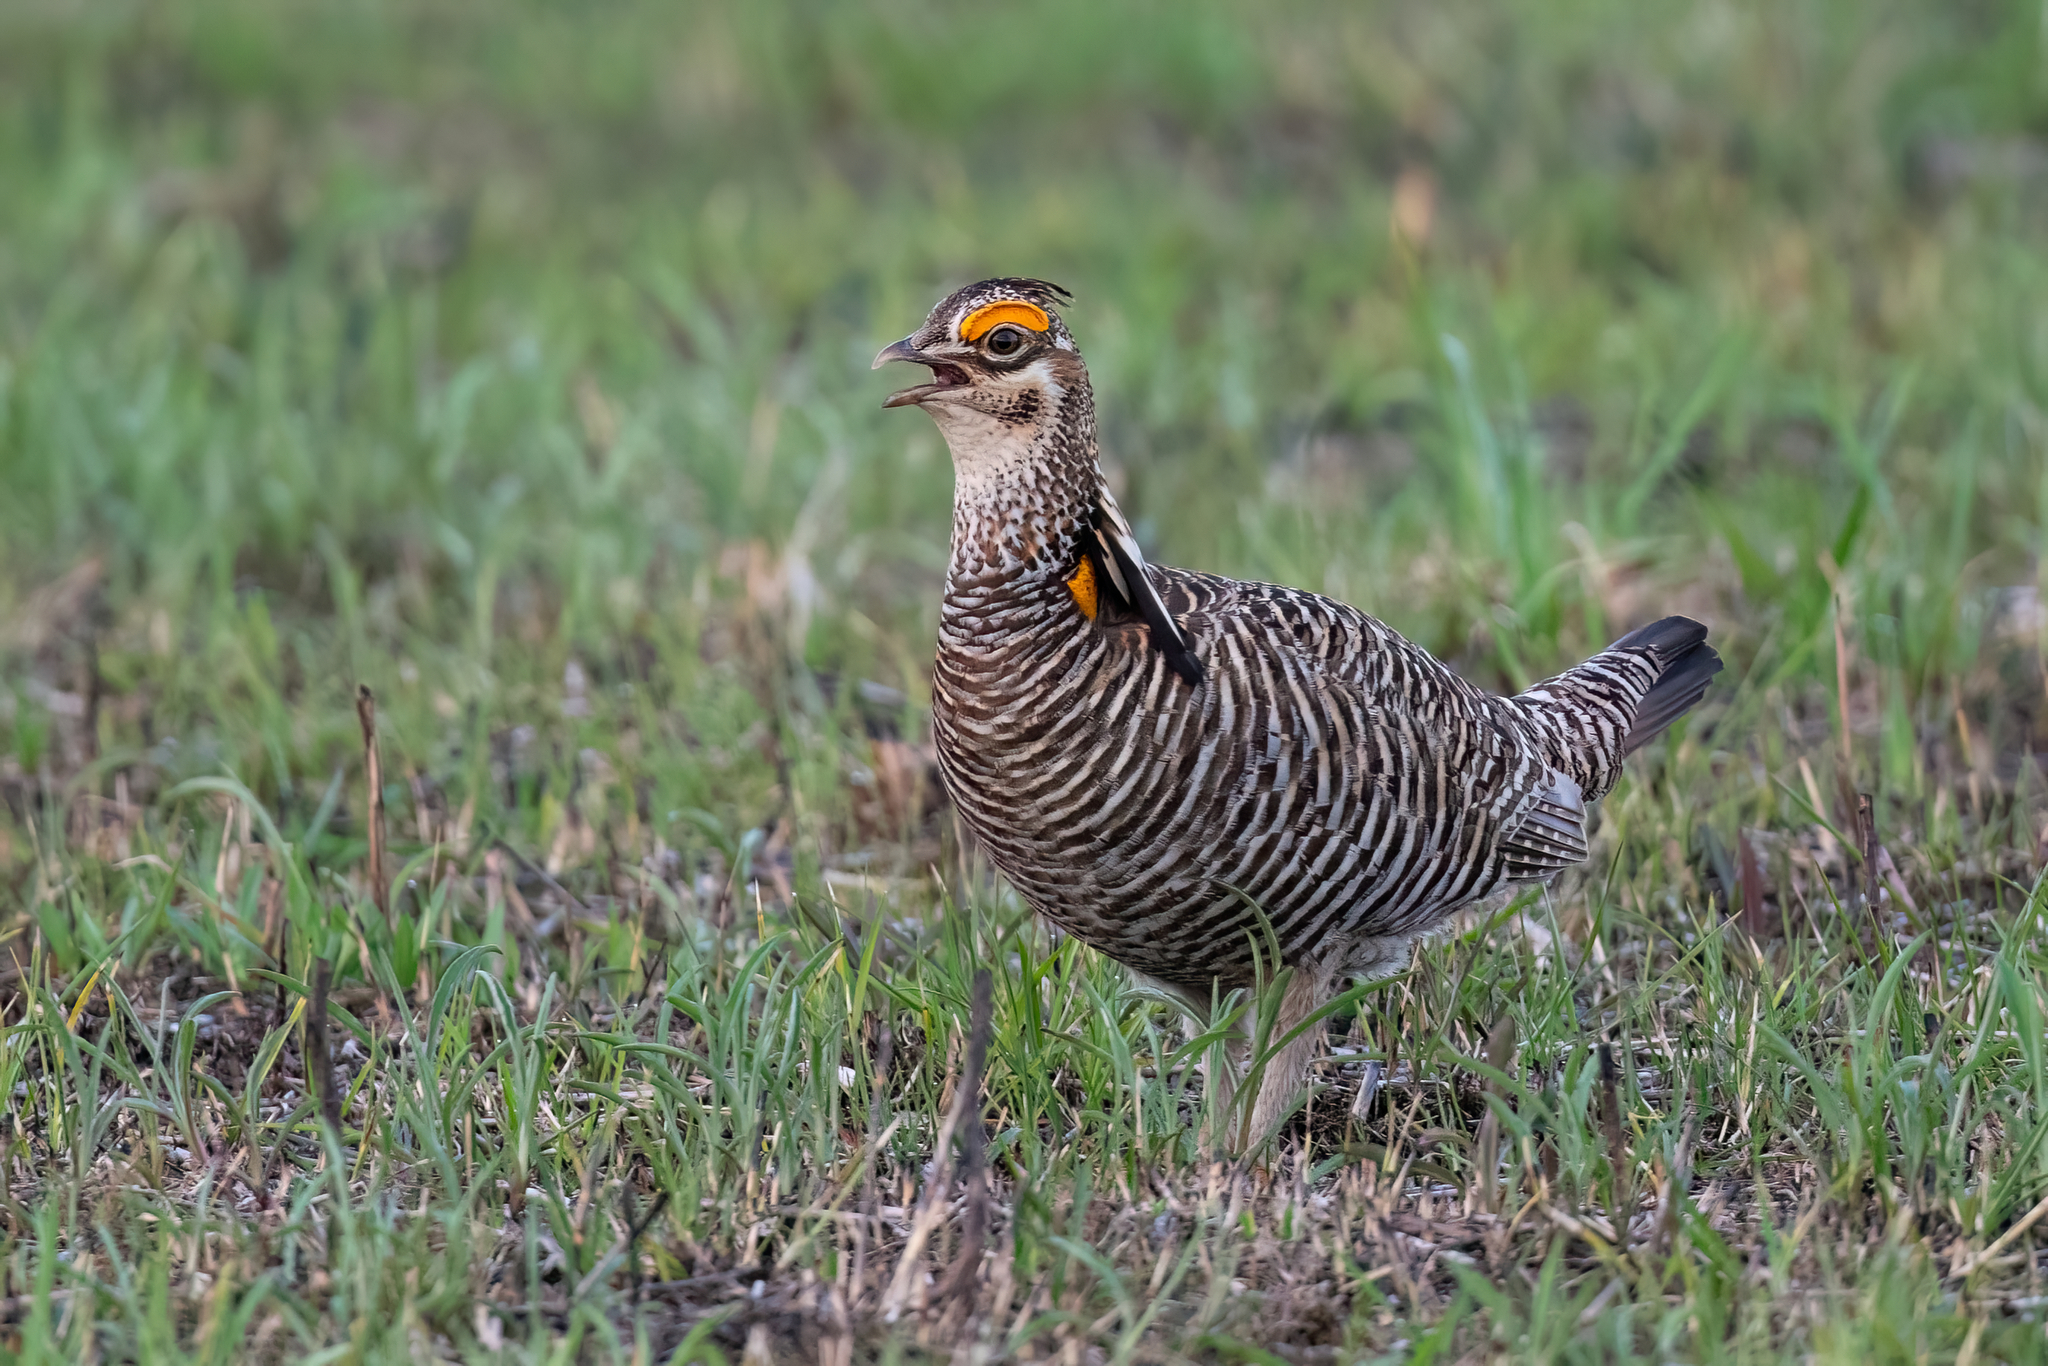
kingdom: Animalia
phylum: Chordata
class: Aves
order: Galliformes
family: Phasianidae
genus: Tympanuchus
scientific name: Tympanuchus cupido
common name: Greater prairie chicken
